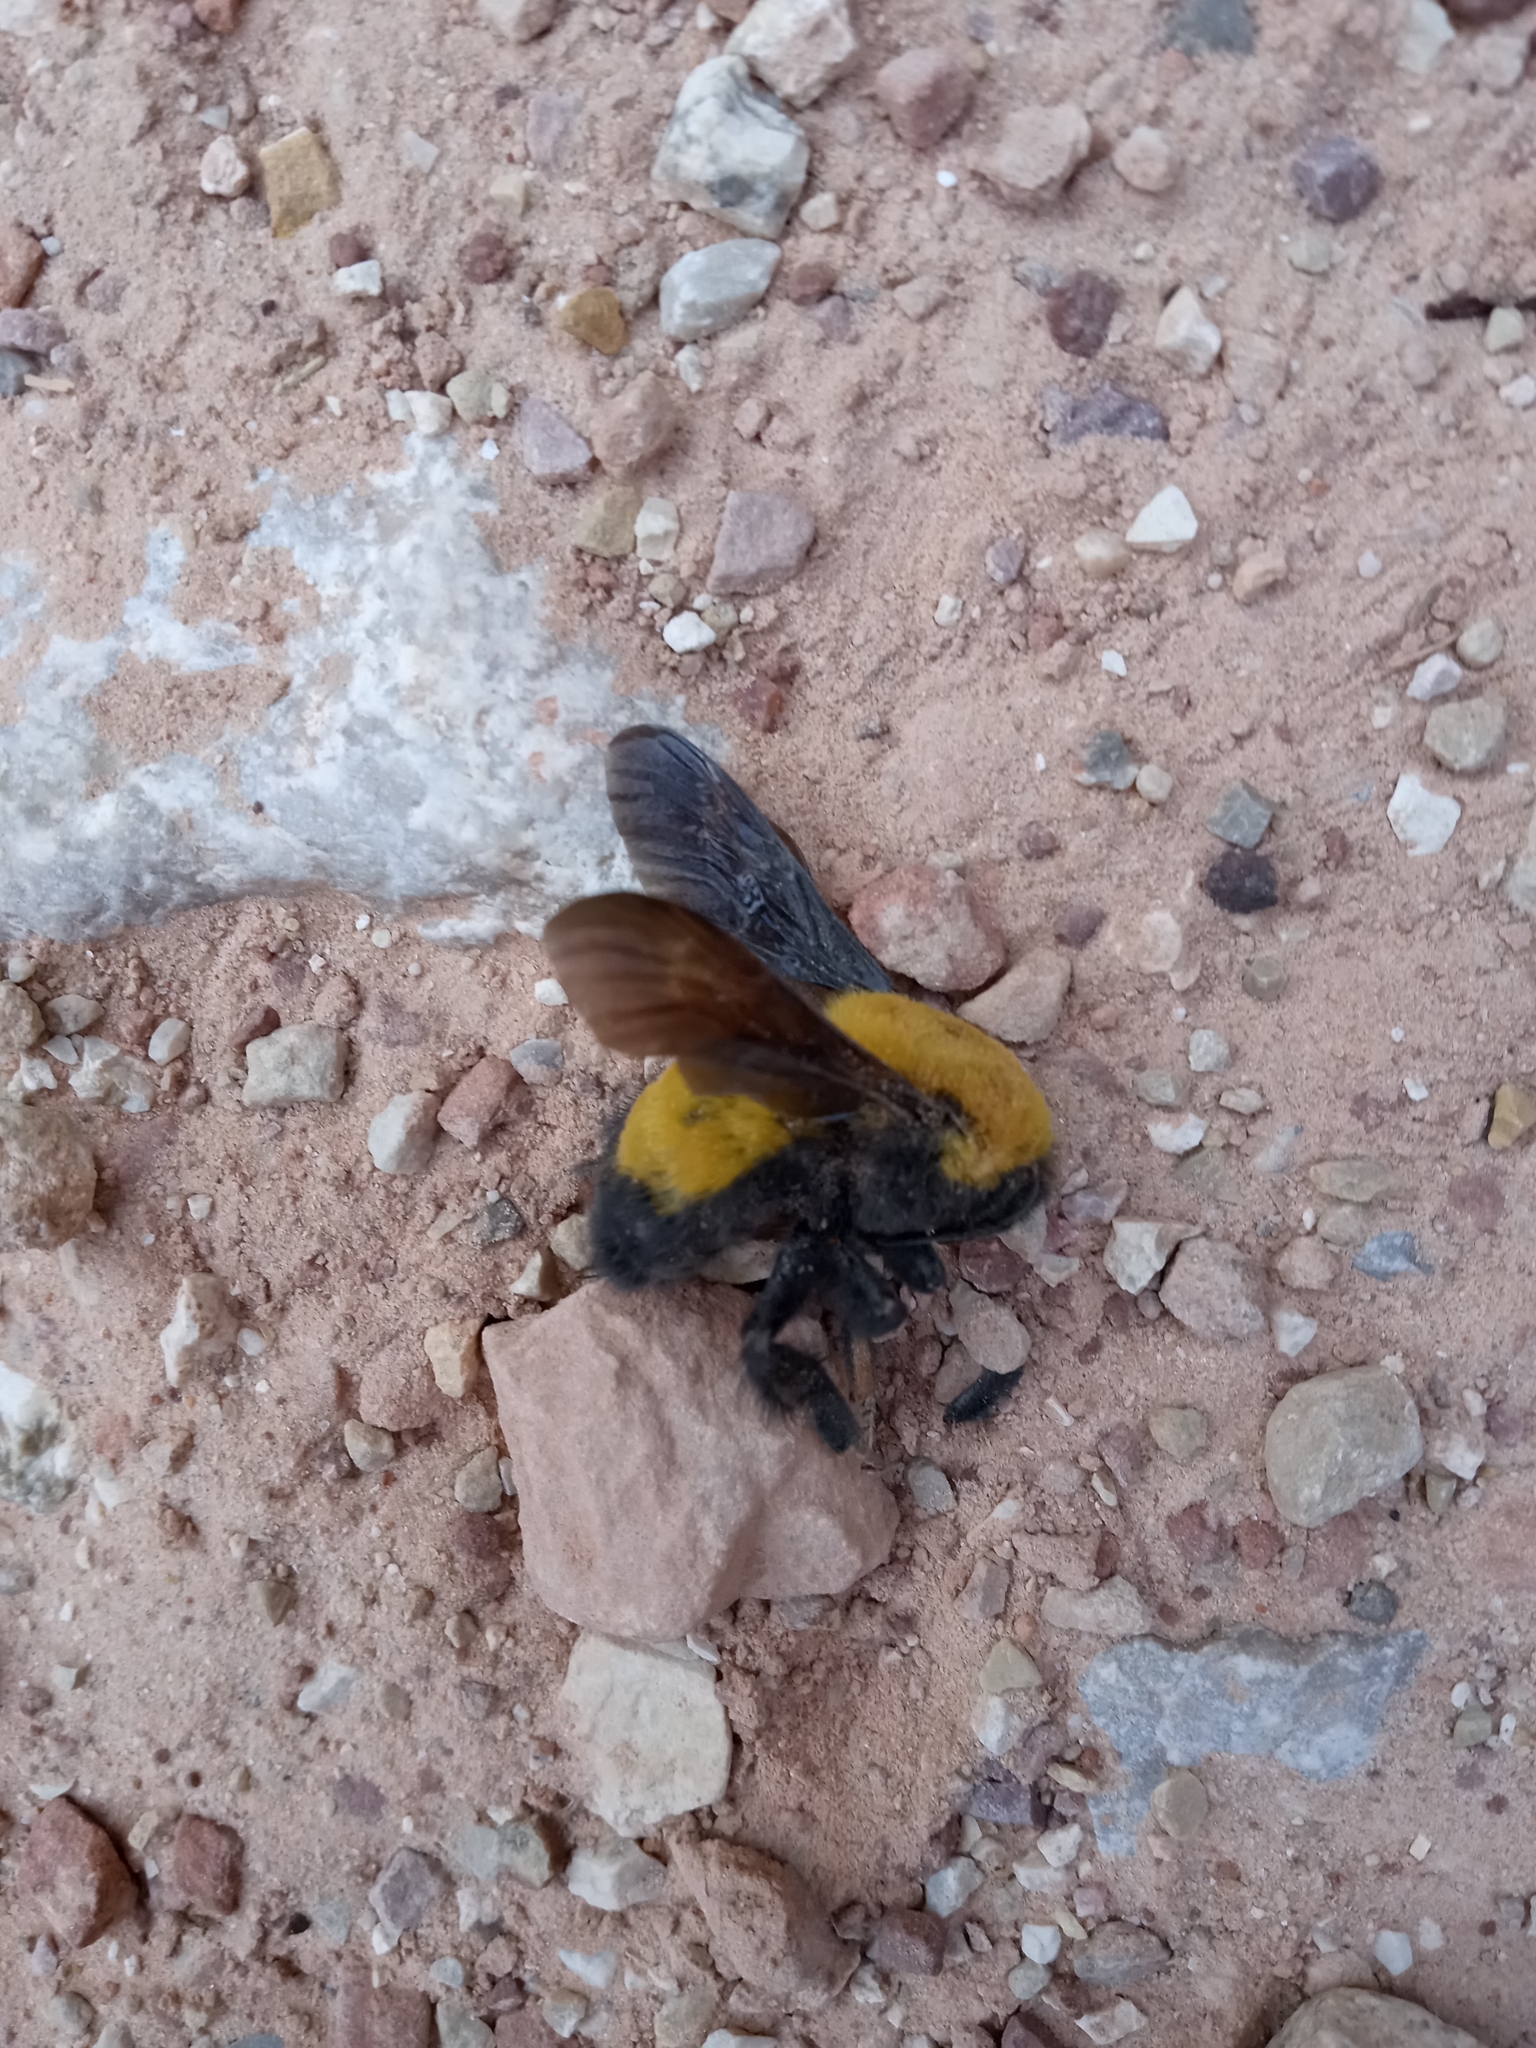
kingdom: Animalia
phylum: Arthropoda
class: Insecta
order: Hymenoptera
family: Apidae
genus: Bombus
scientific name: Bombus morrisoni
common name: Morrison bumble bee
